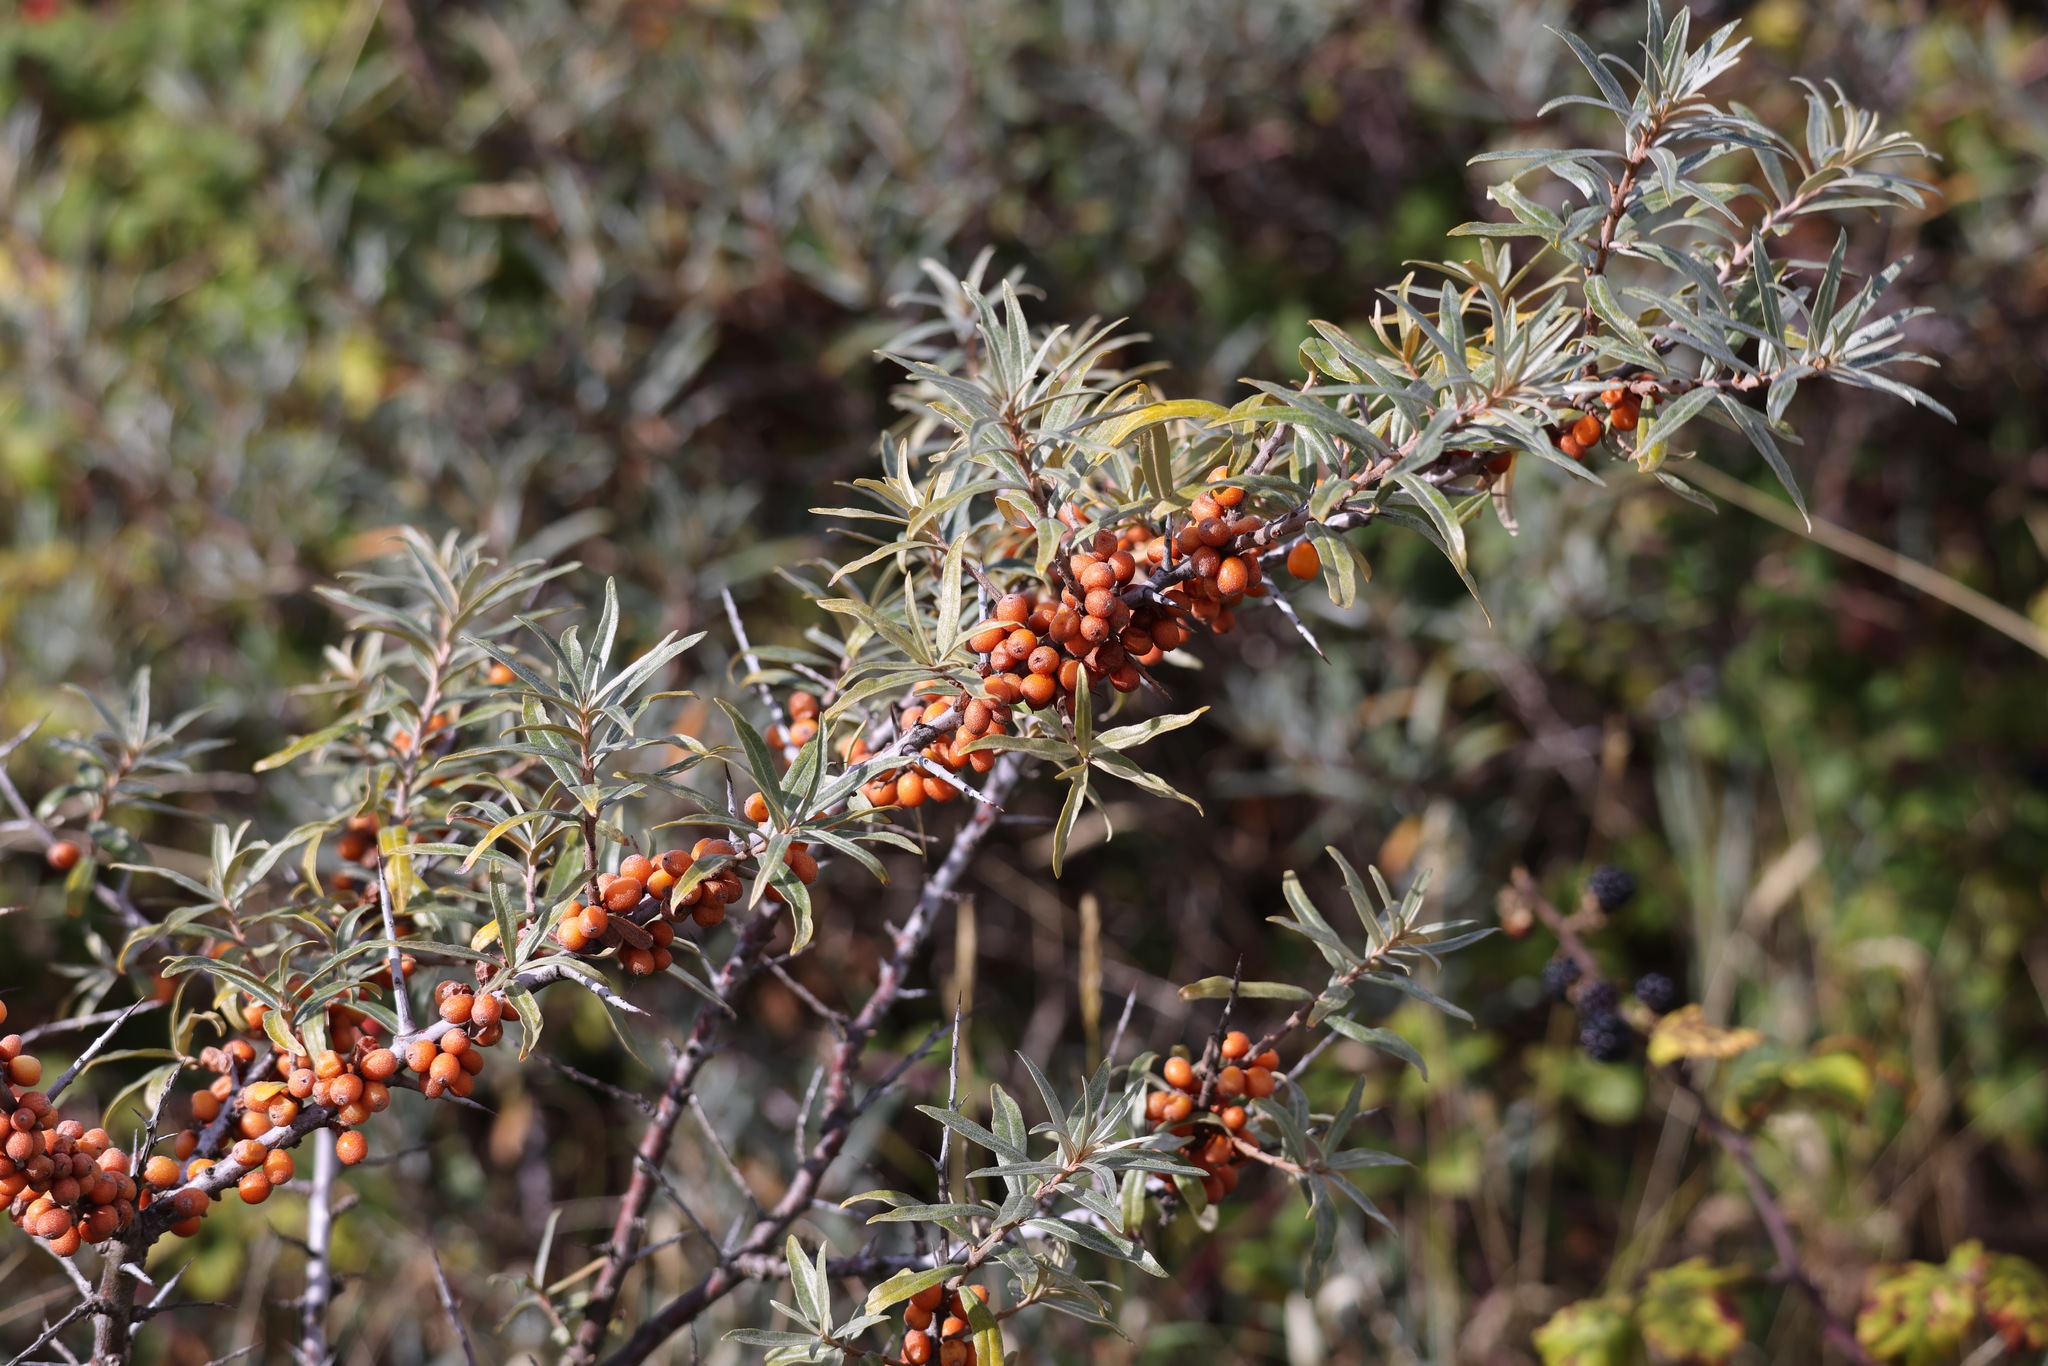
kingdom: Plantae
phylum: Tracheophyta
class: Magnoliopsida
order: Rosales
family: Elaeagnaceae
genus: Hippophae
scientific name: Hippophae rhamnoides
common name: Sea-buckthorn
